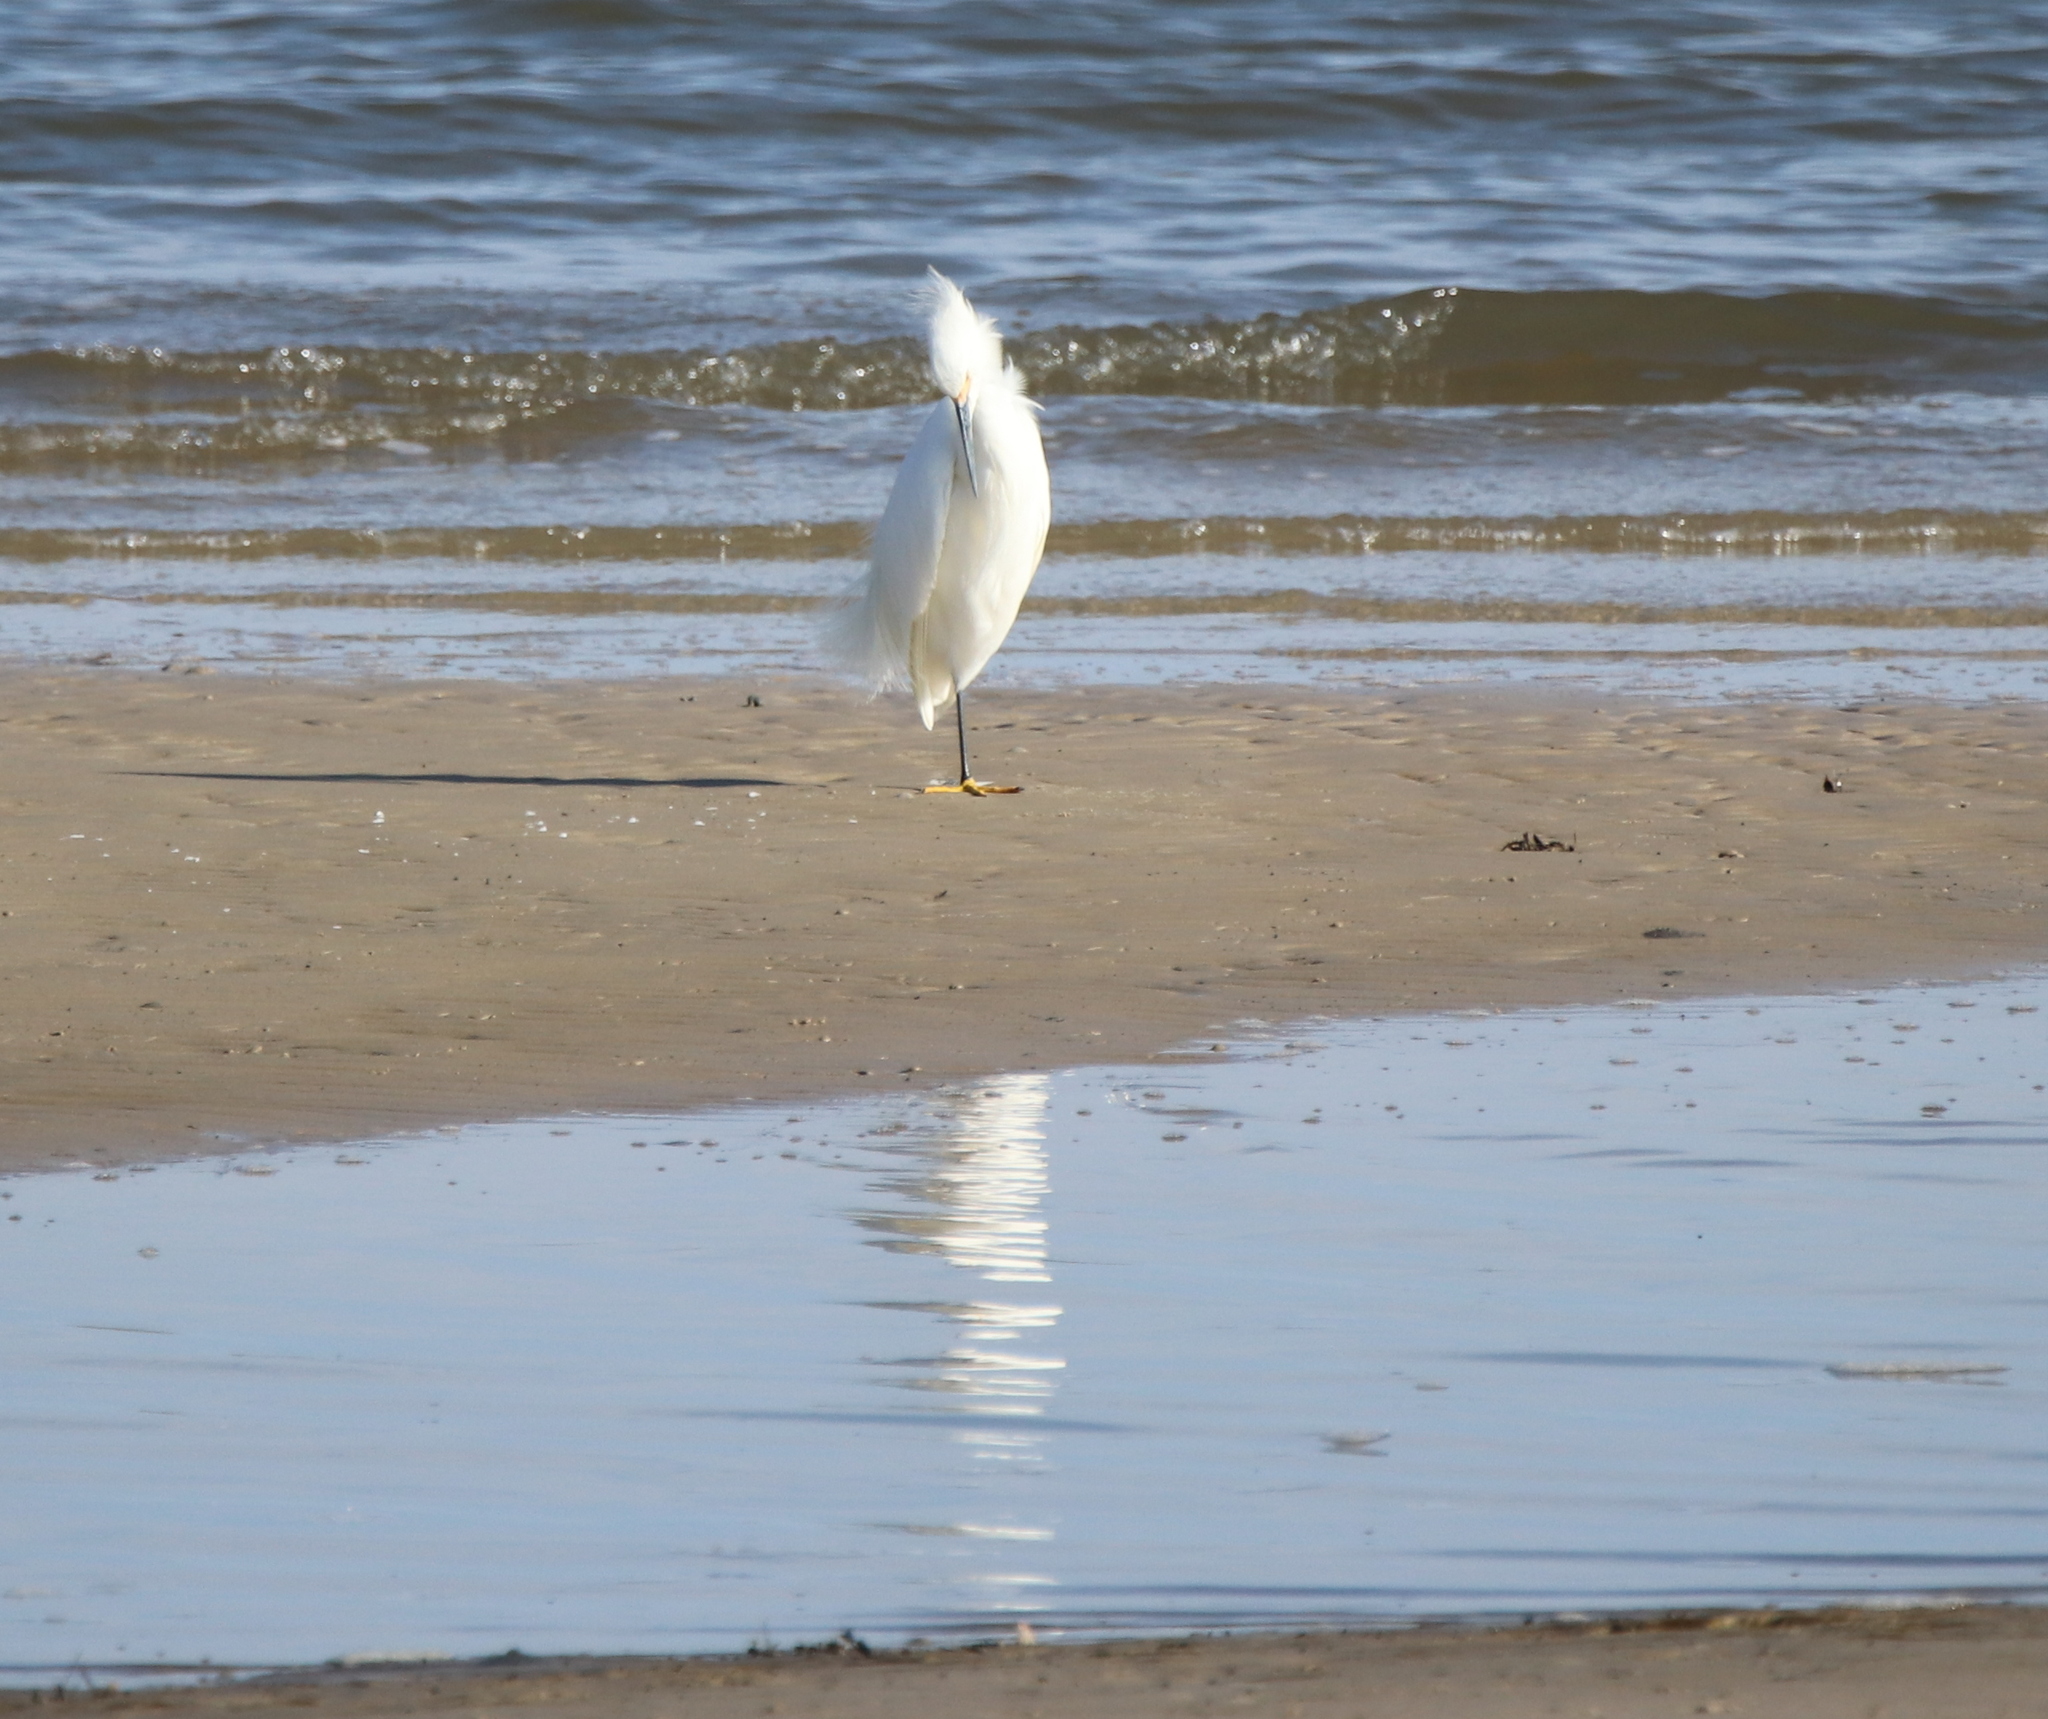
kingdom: Animalia
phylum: Chordata
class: Aves
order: Pelecaniformes
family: Ardeidae
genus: Egretta
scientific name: Egretta thula
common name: Snowy egret
